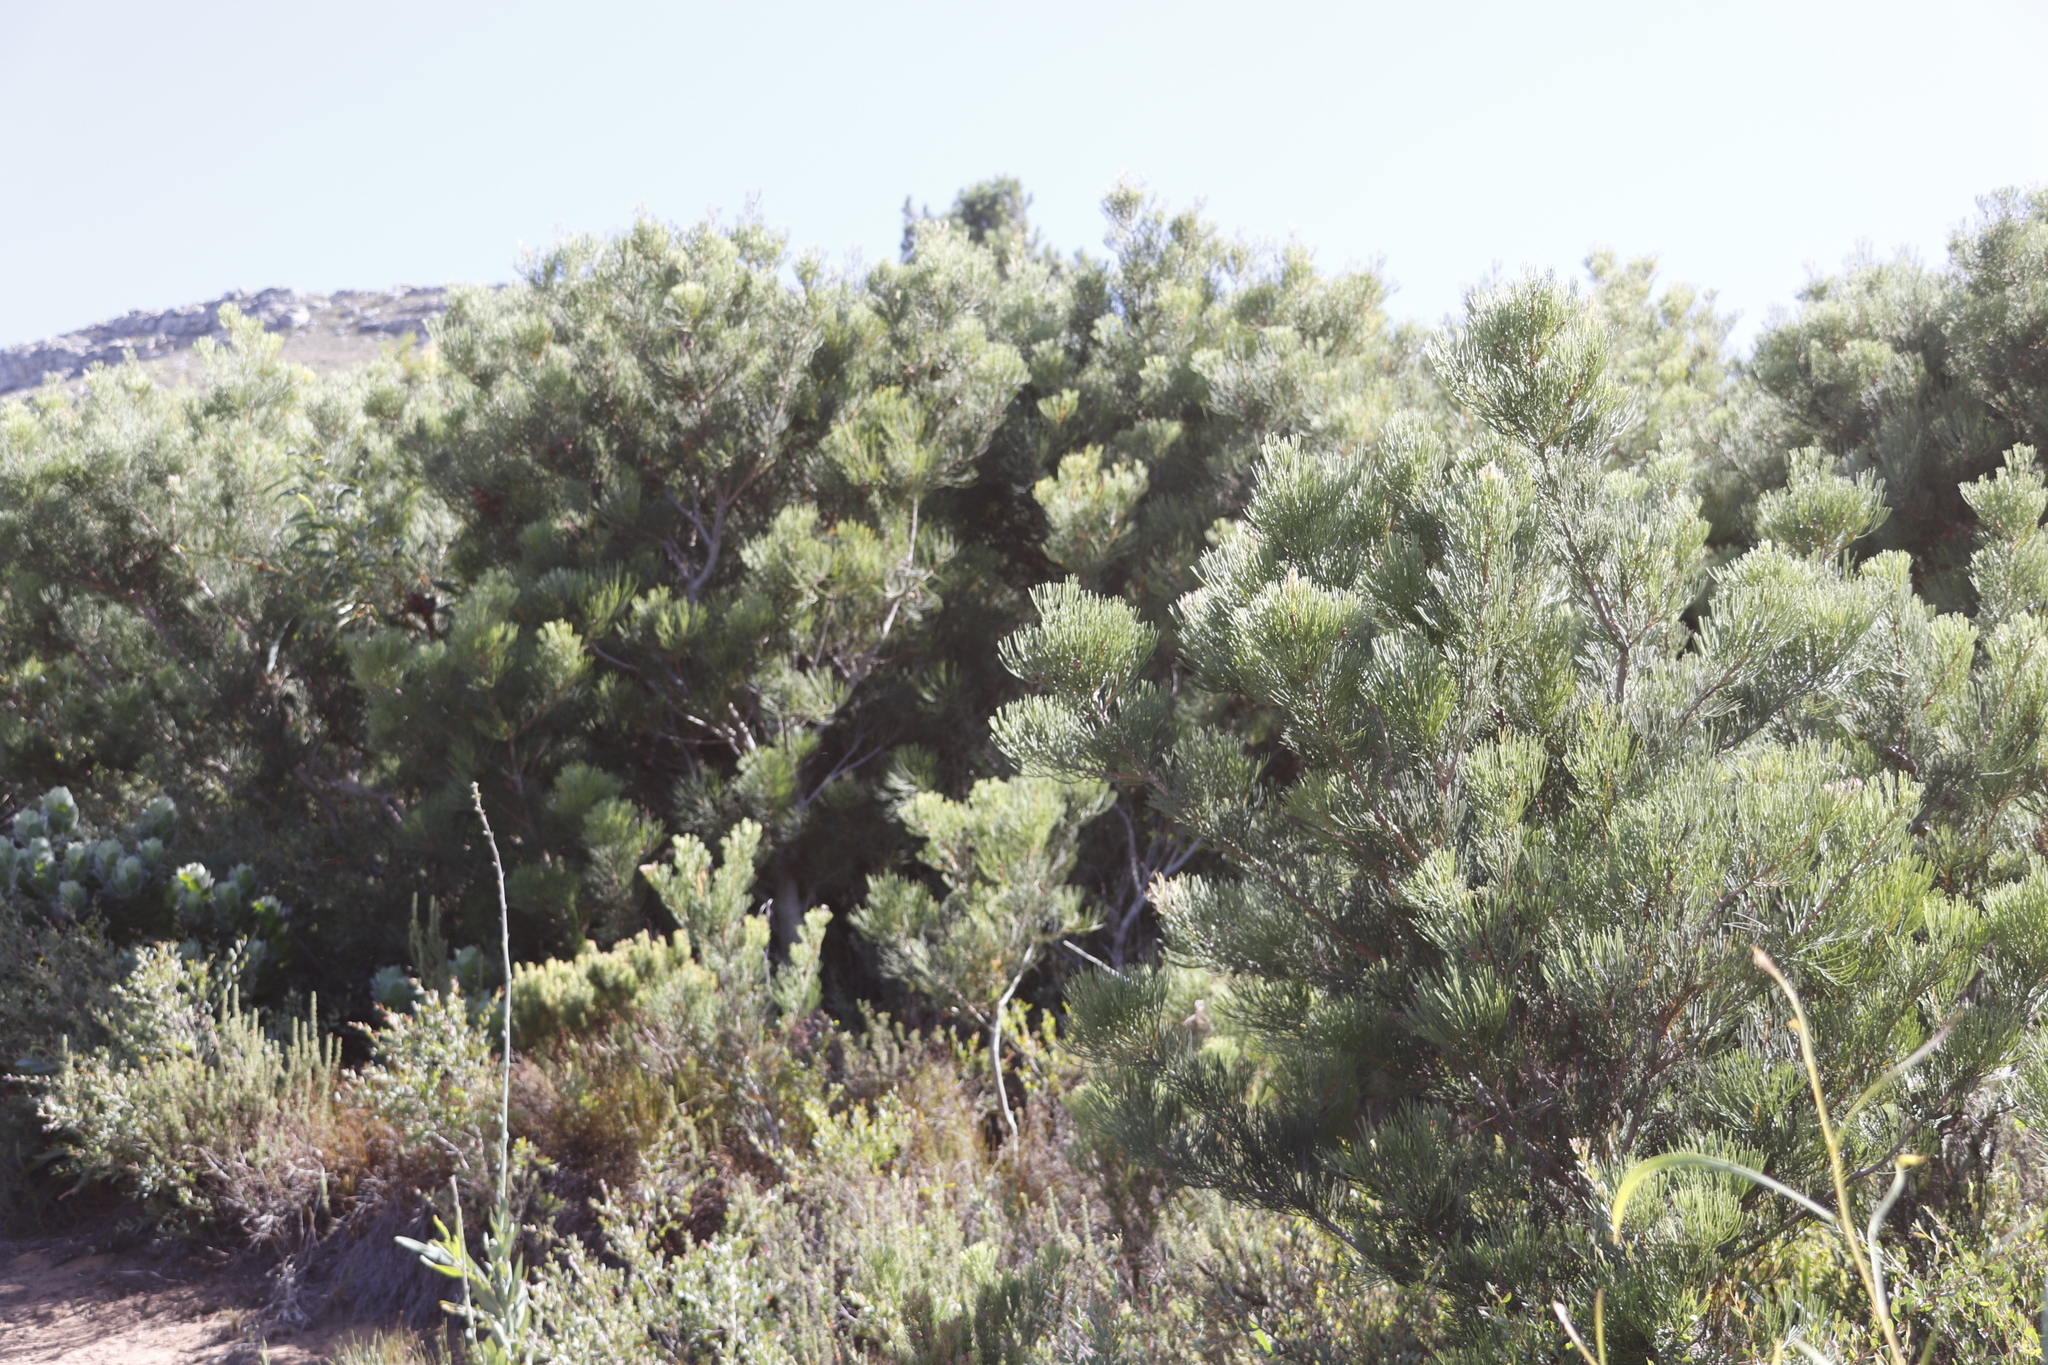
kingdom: Plantae
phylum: Tracheophyta
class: Magnoliopsida
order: Proteales
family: Proteaceae
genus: Hakea
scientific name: Hakea drupacea
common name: Sweet hakea
